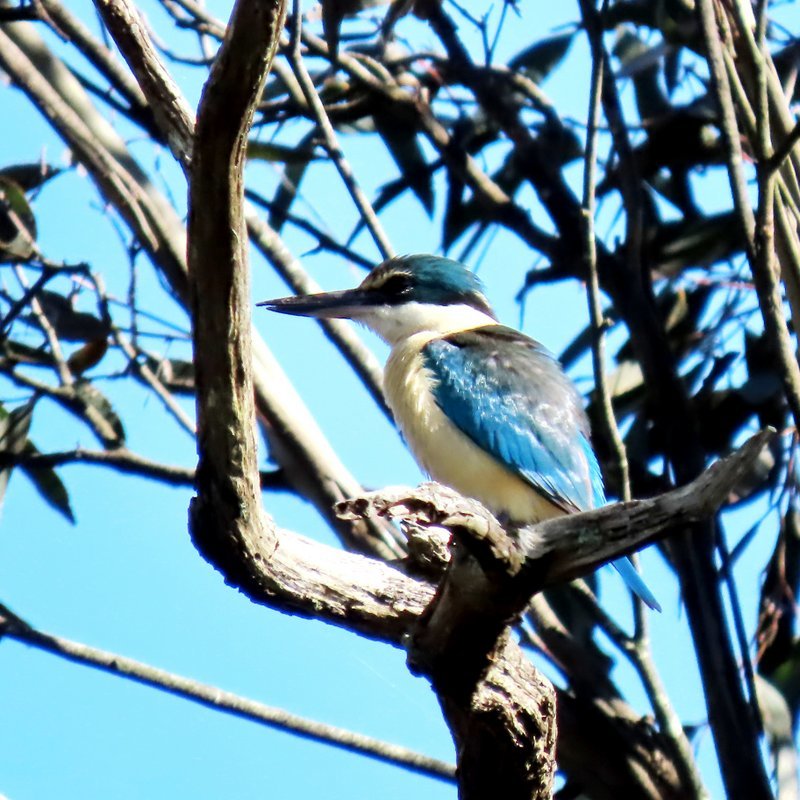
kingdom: Animalia
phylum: Chordata
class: Aves
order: Coraciiformes
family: Alcedinidae
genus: Todiramphus
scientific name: Todiramphus sanctus
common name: Sacred kingfisher
